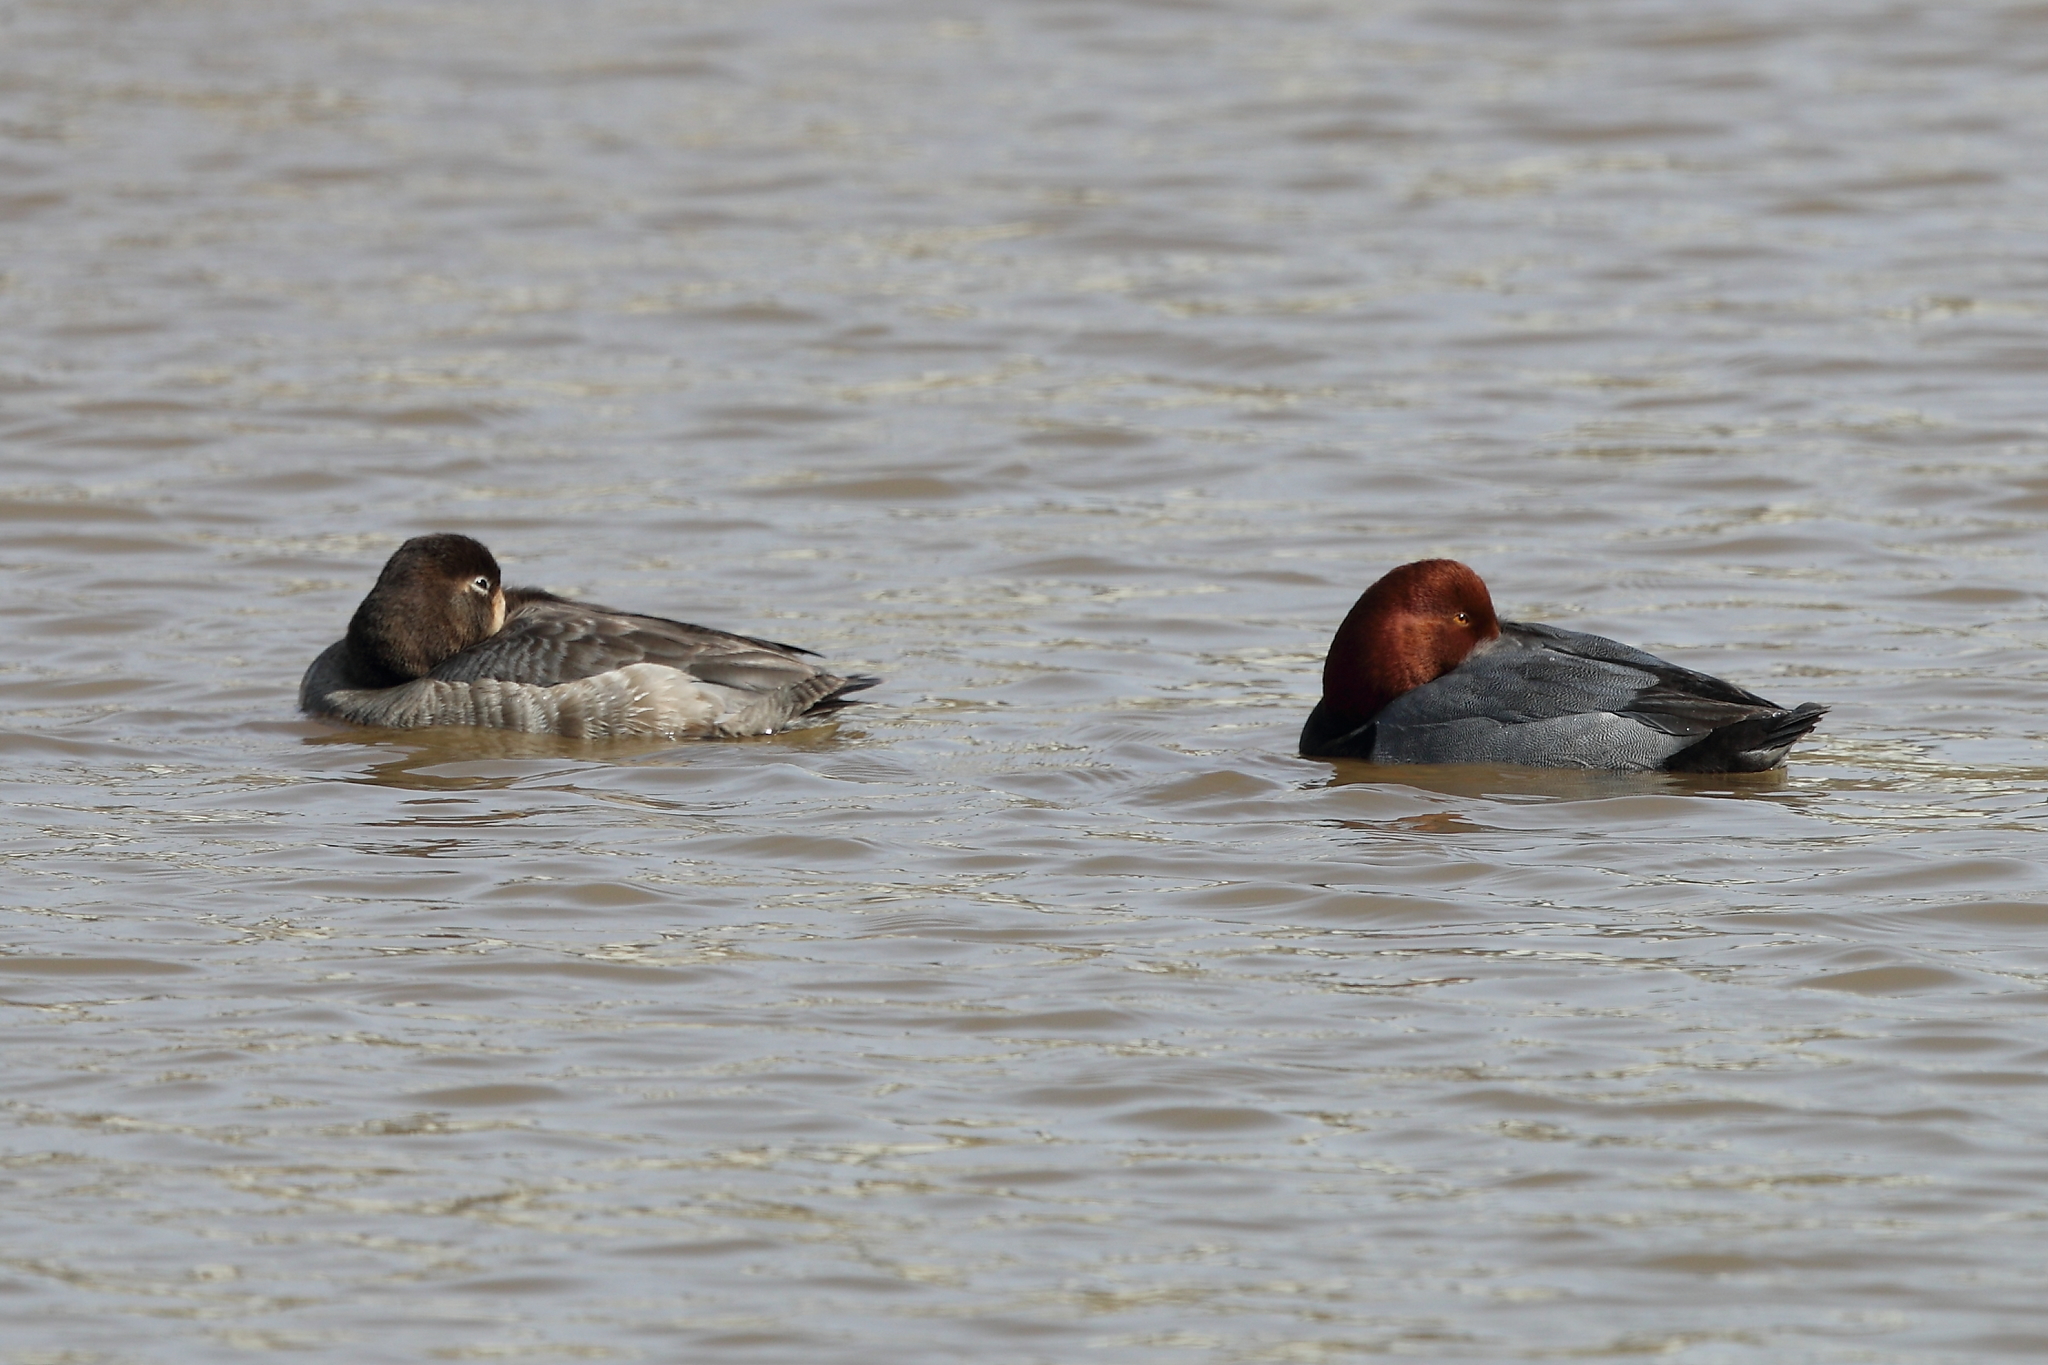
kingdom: Animalia
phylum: Chordata
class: Aves
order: Anseriformes
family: Anatidae
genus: Aythya
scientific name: Aythya americana
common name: Redhead
